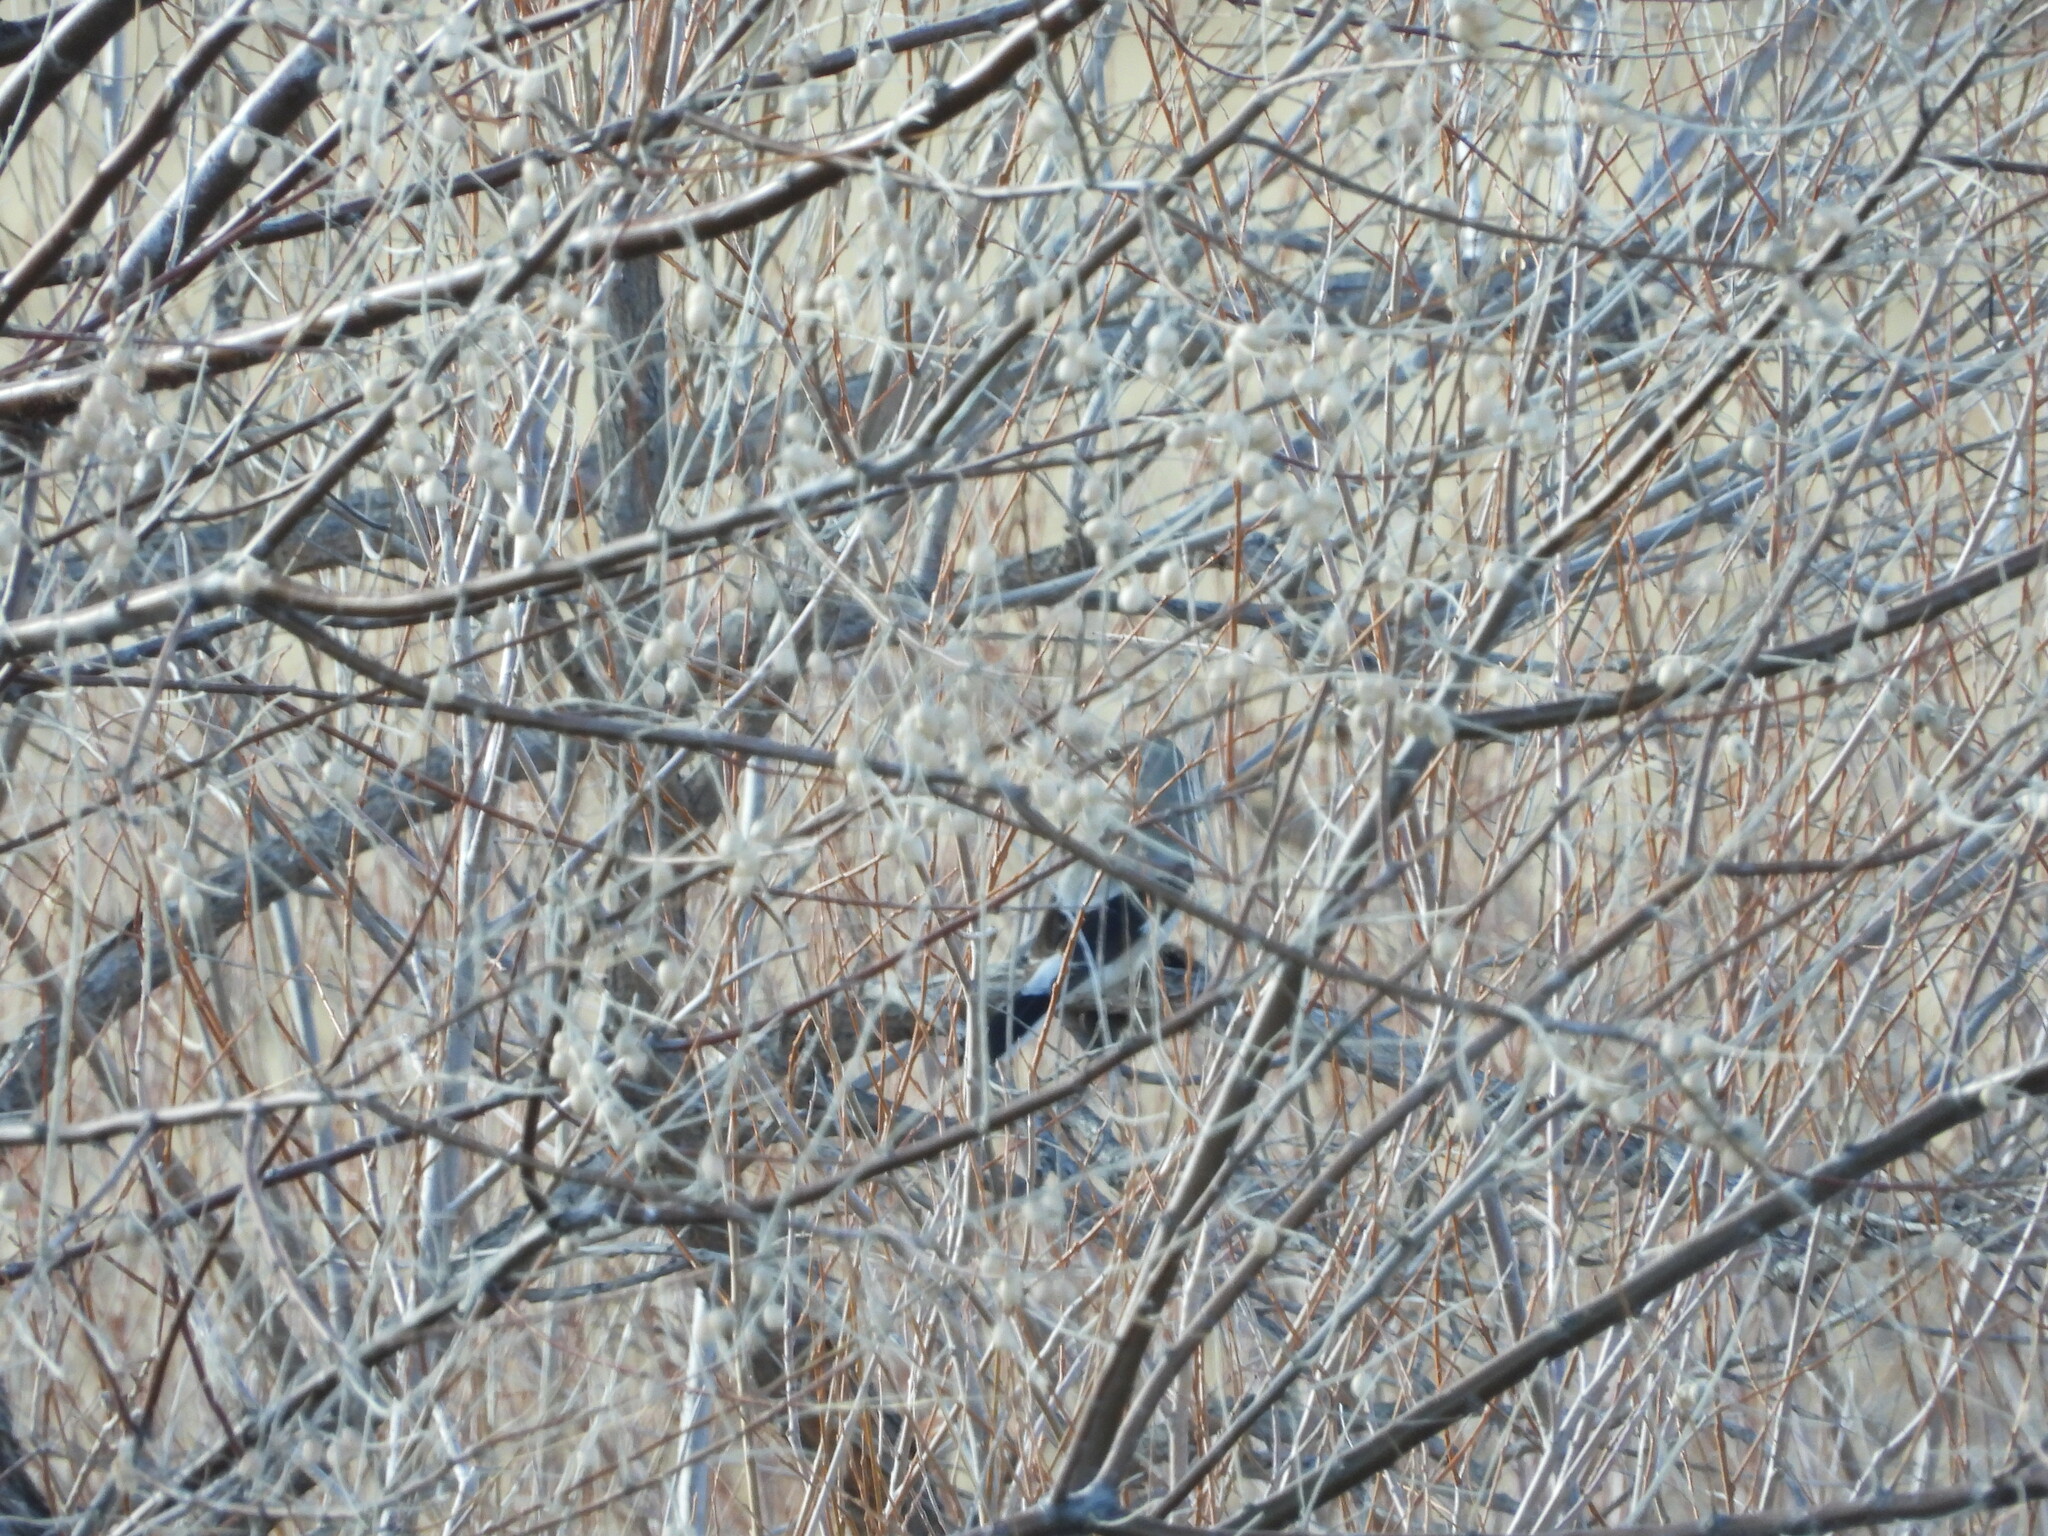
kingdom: Animalia
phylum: Chordata
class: Aves
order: Passeriformes
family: Laniidae
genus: Lanius
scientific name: Lanius borealis
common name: Northern shrike
